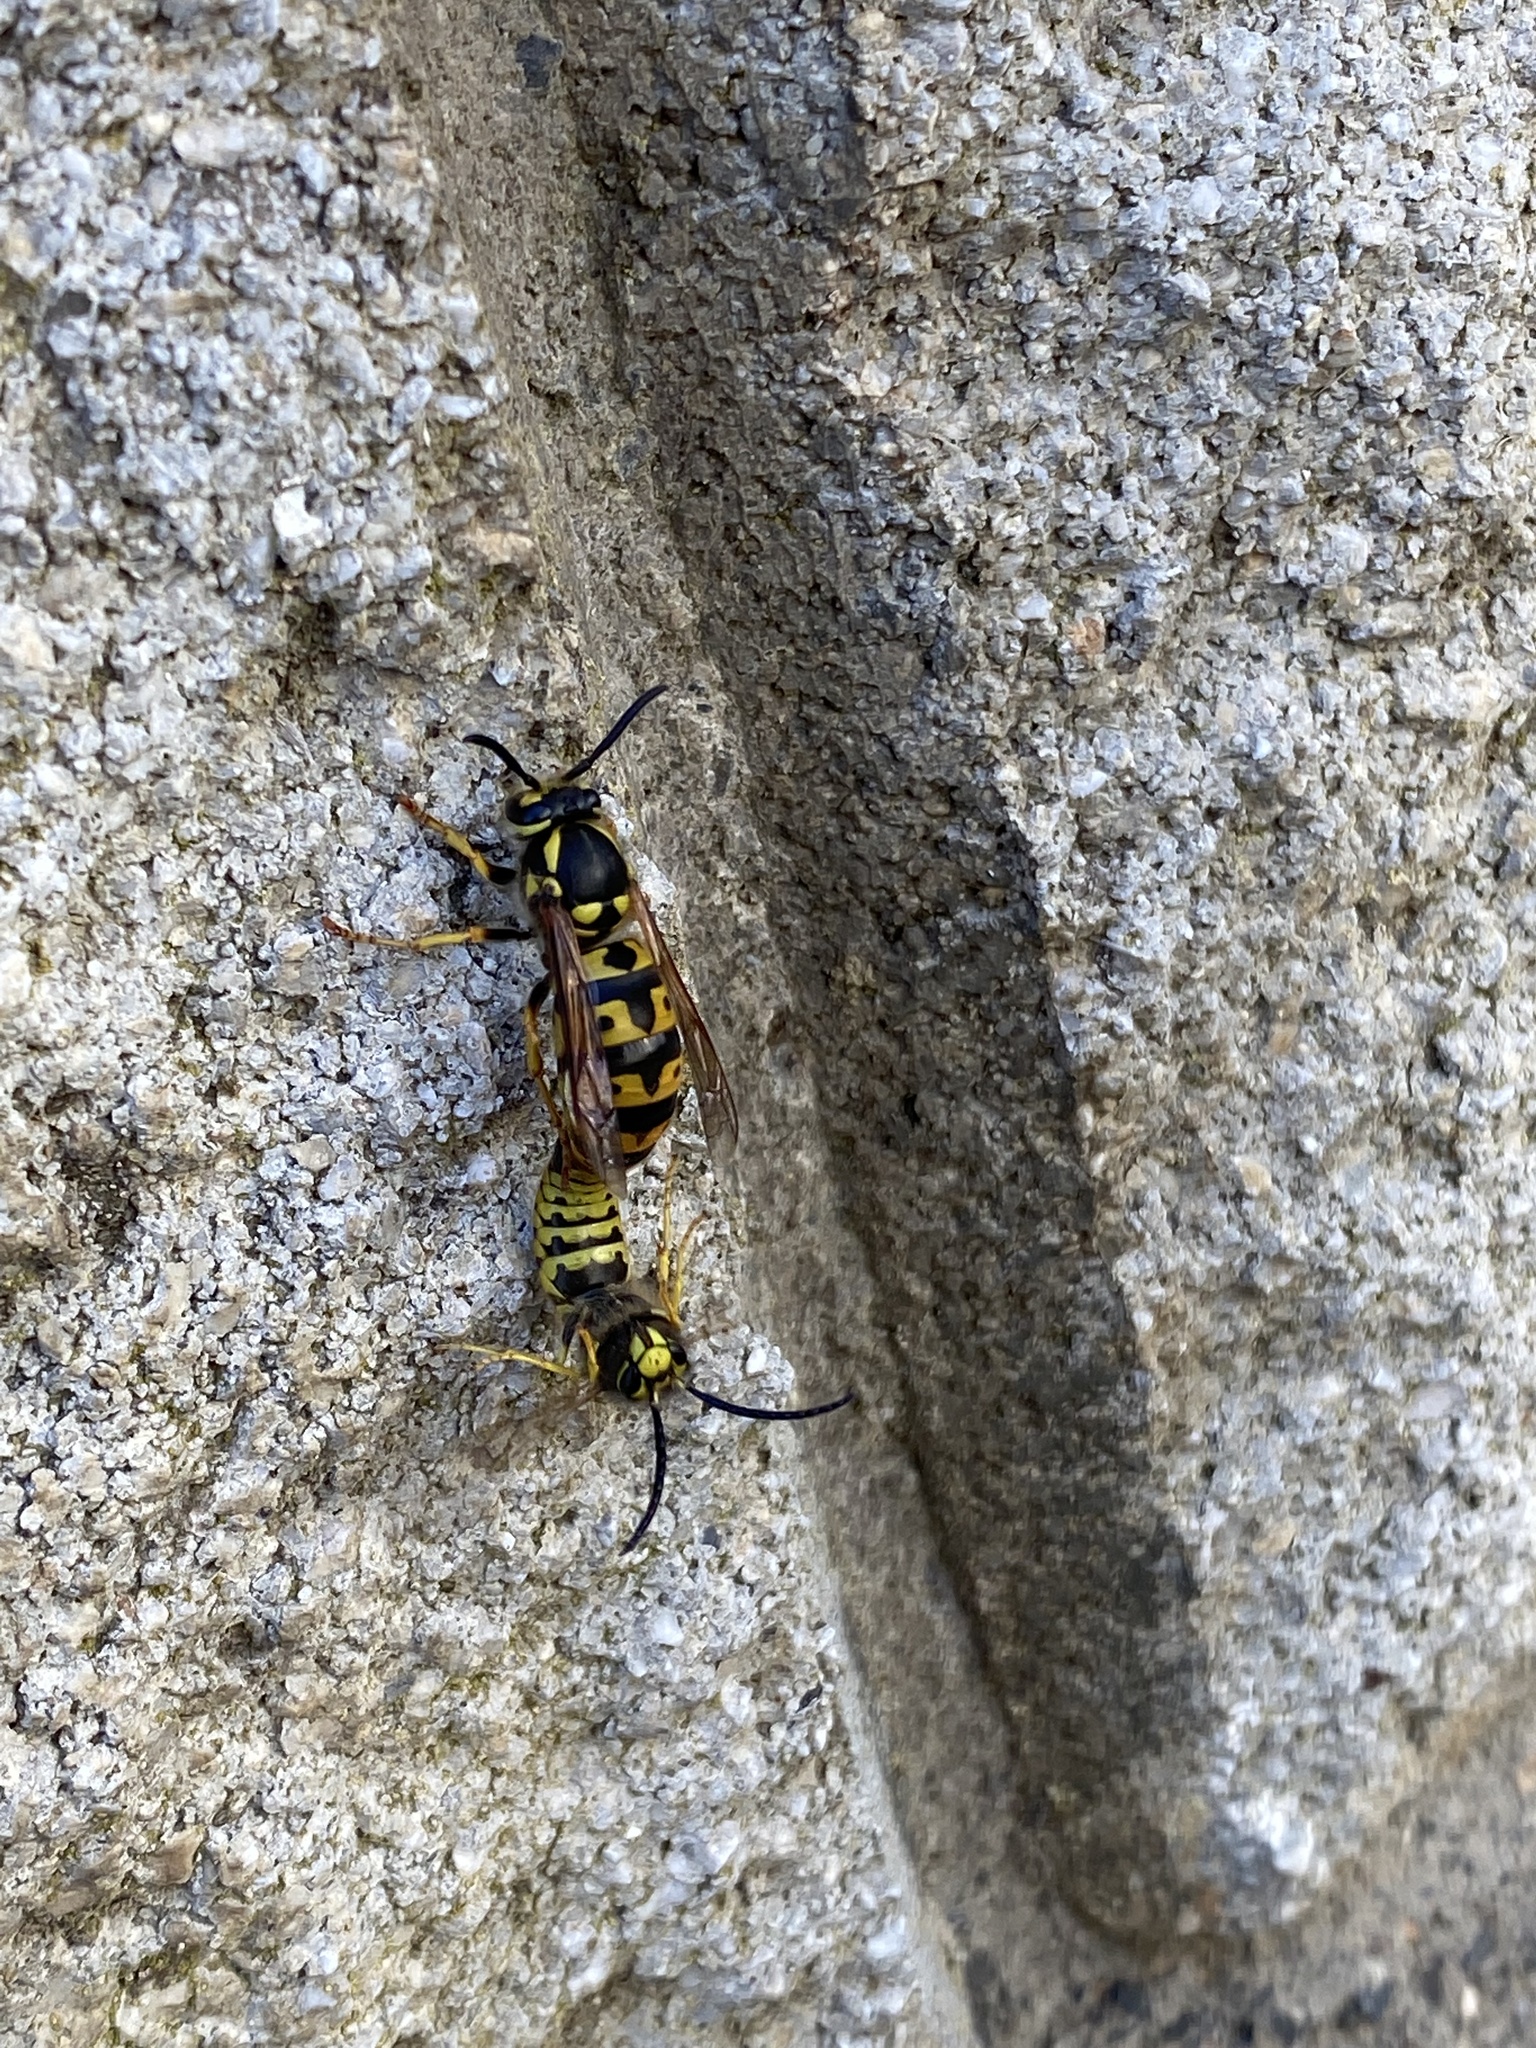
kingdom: Animalia
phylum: Arthropoda
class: Insecta
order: Hymenoptera
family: Vespidae
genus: Vespula
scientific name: Vespula germanica
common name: German wasp
